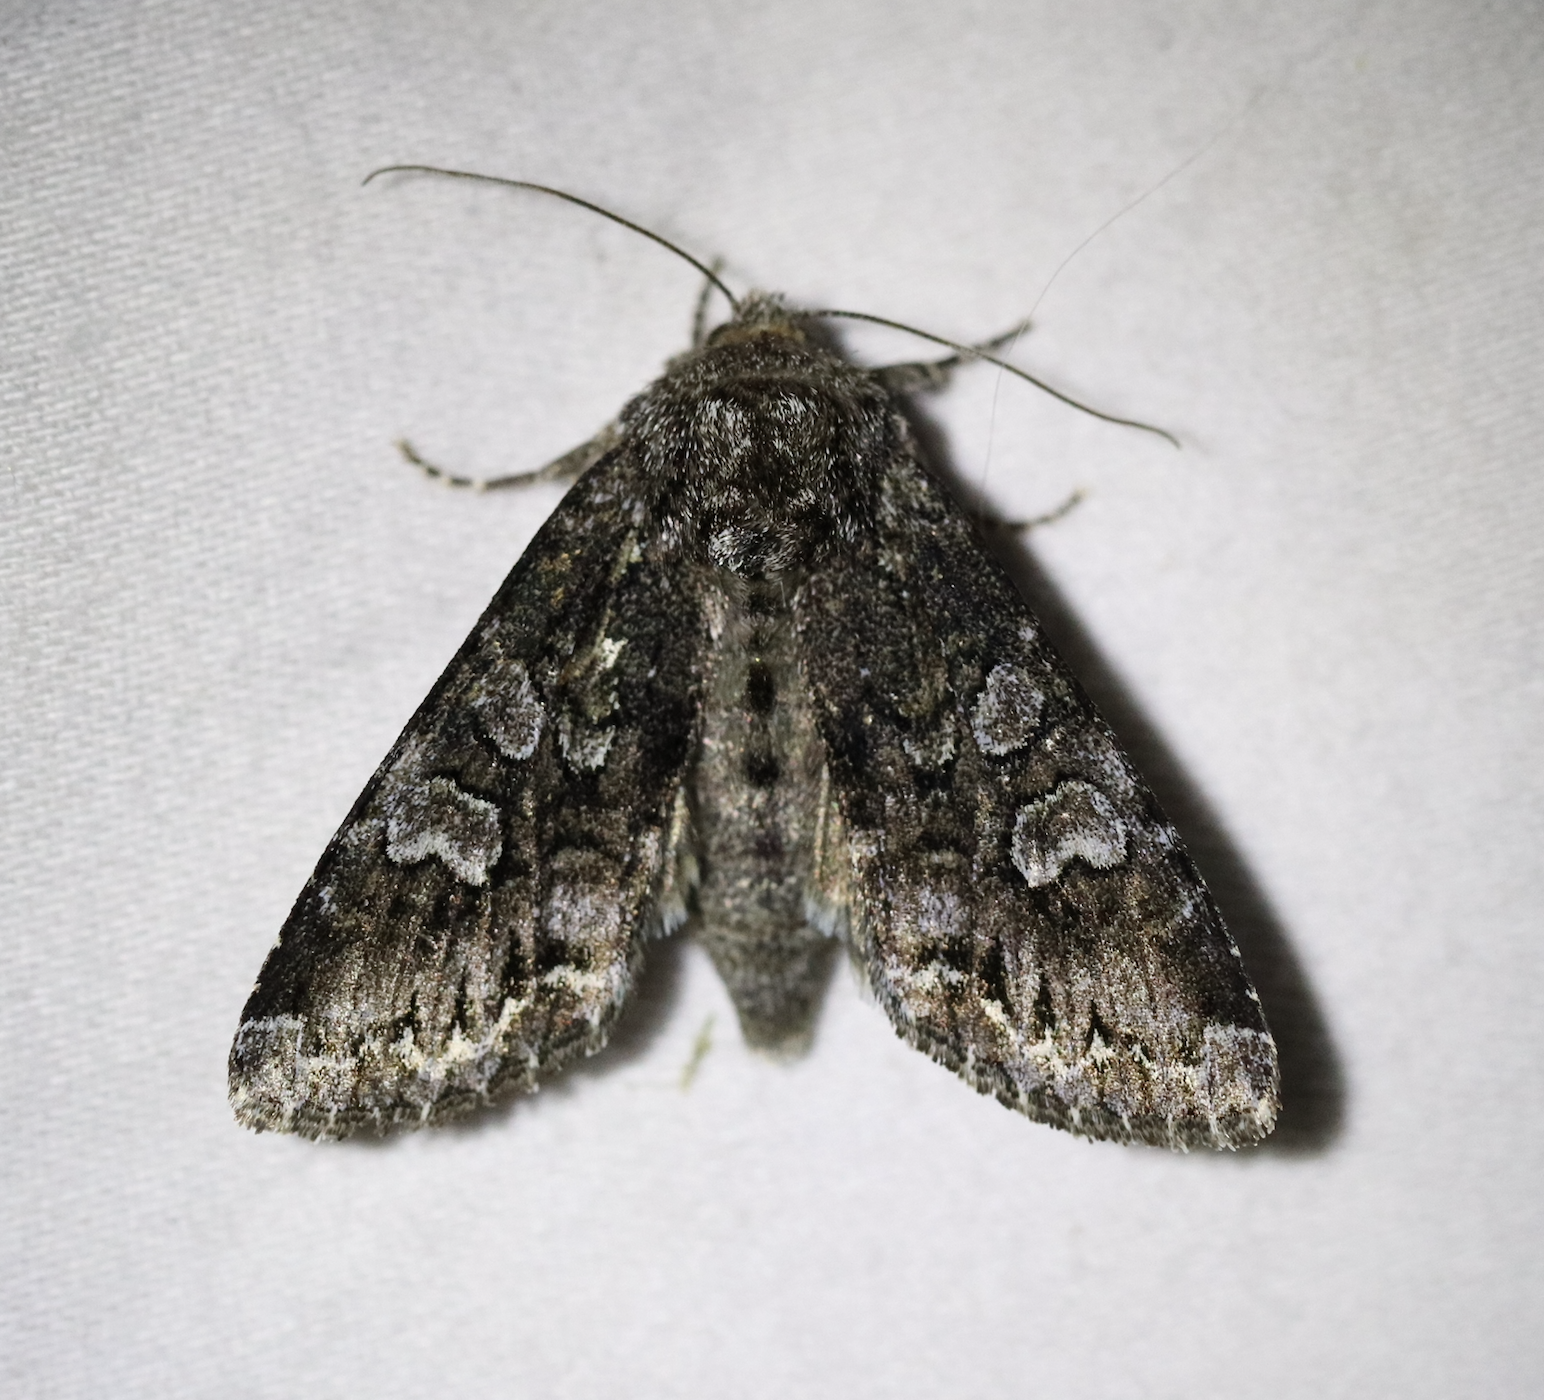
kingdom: Animalia
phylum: Arthropoda
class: Insecta
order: Lepidoptera
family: Noctuidae
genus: Papestra
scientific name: Papestra biren
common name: Glaucous shears
